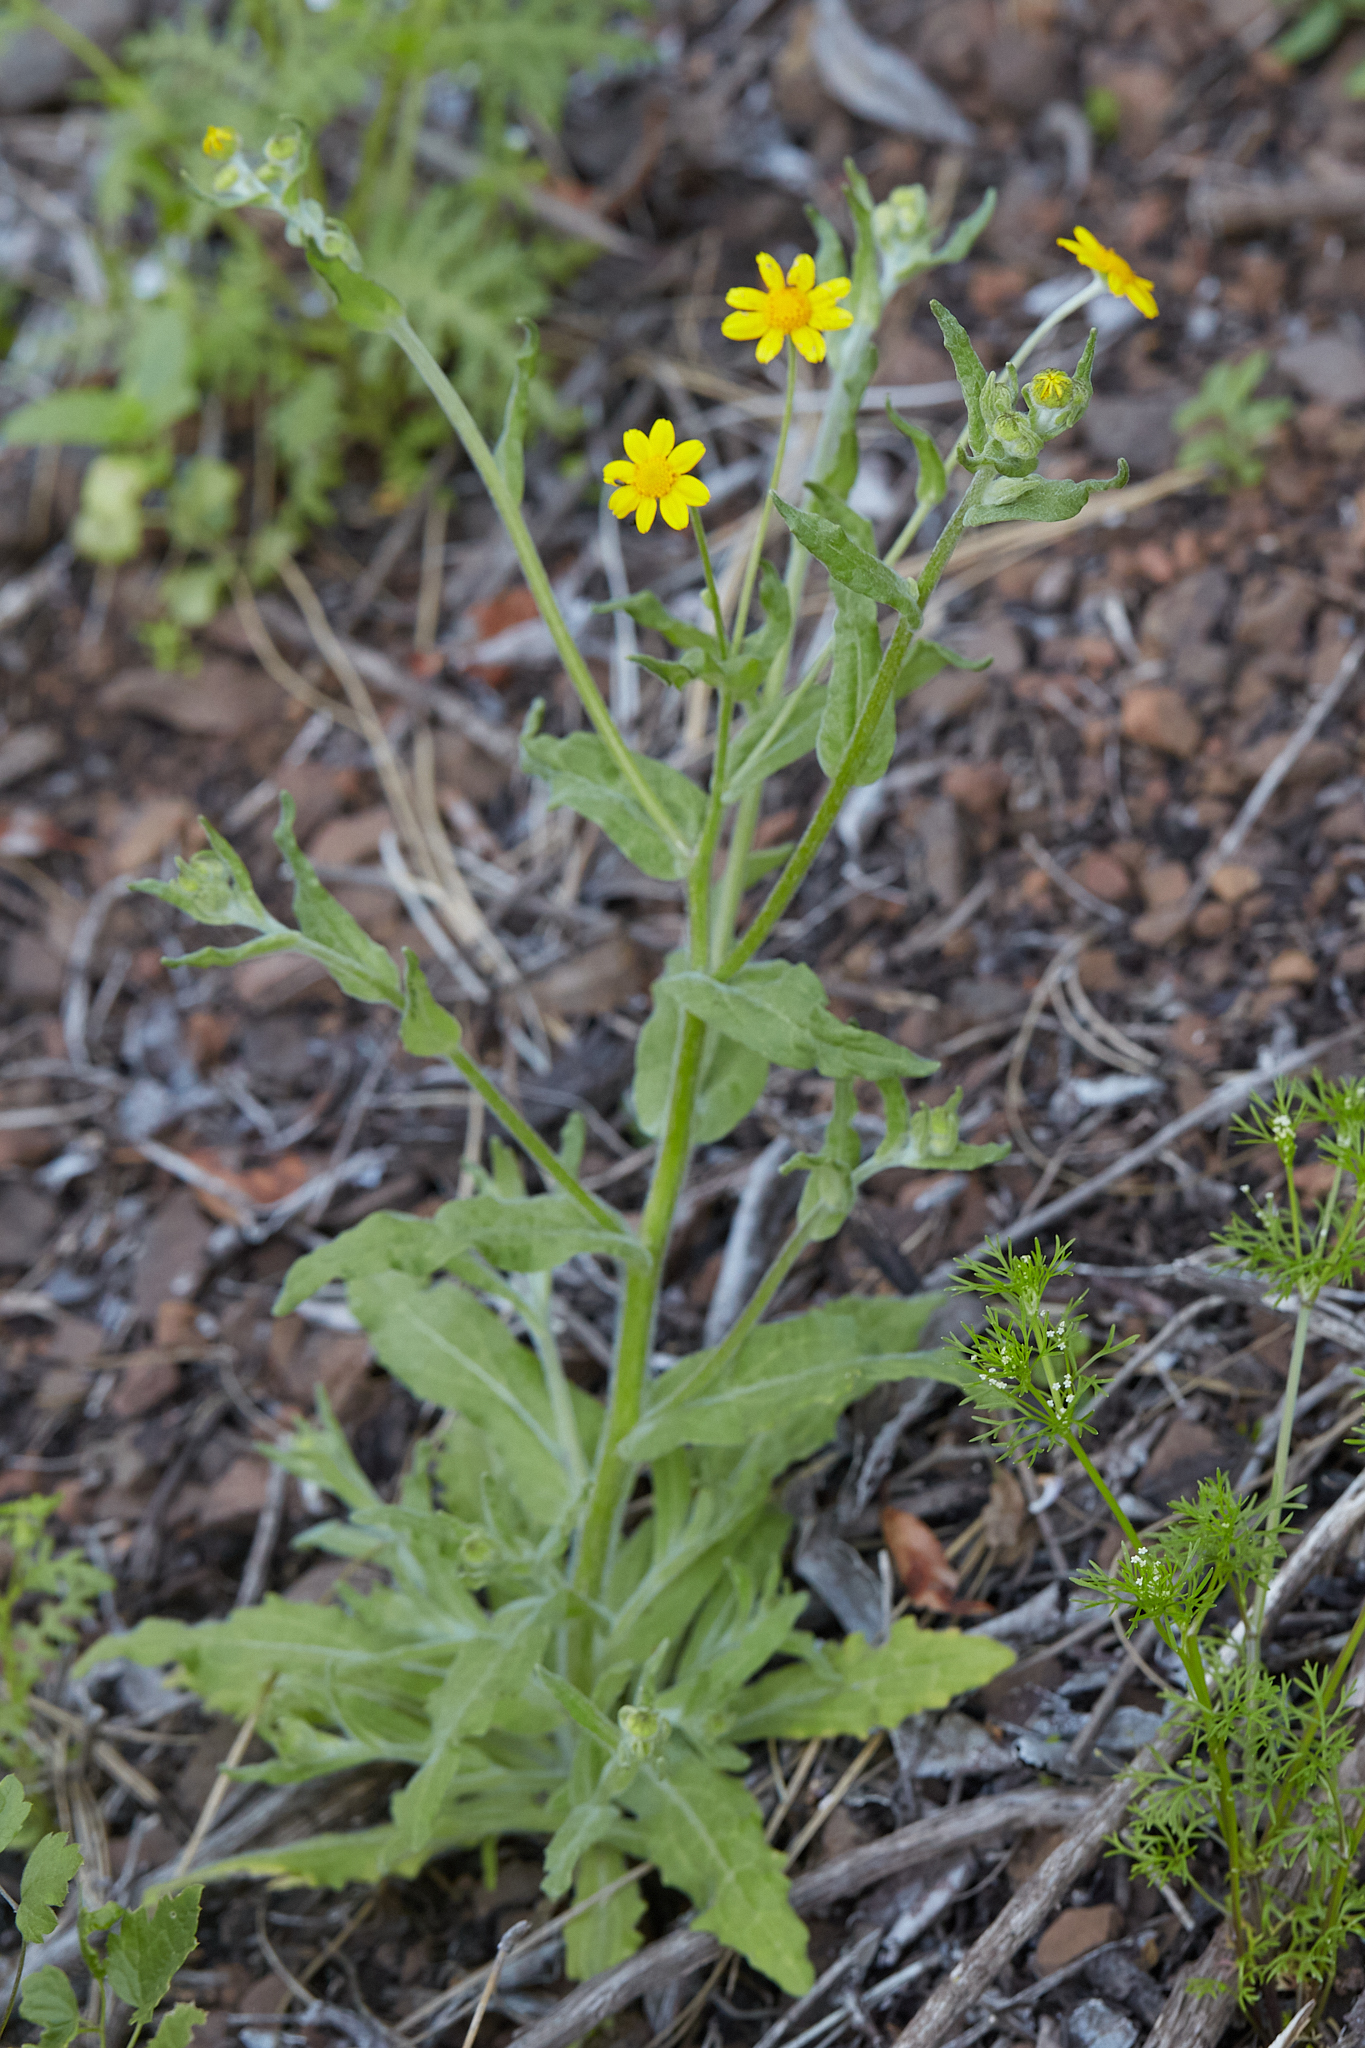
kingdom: Plantae
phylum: Tracheophyta
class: Magnoliopsida
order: Asterales
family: Asteraceae
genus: Monolopia
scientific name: Monolopia gracilens
